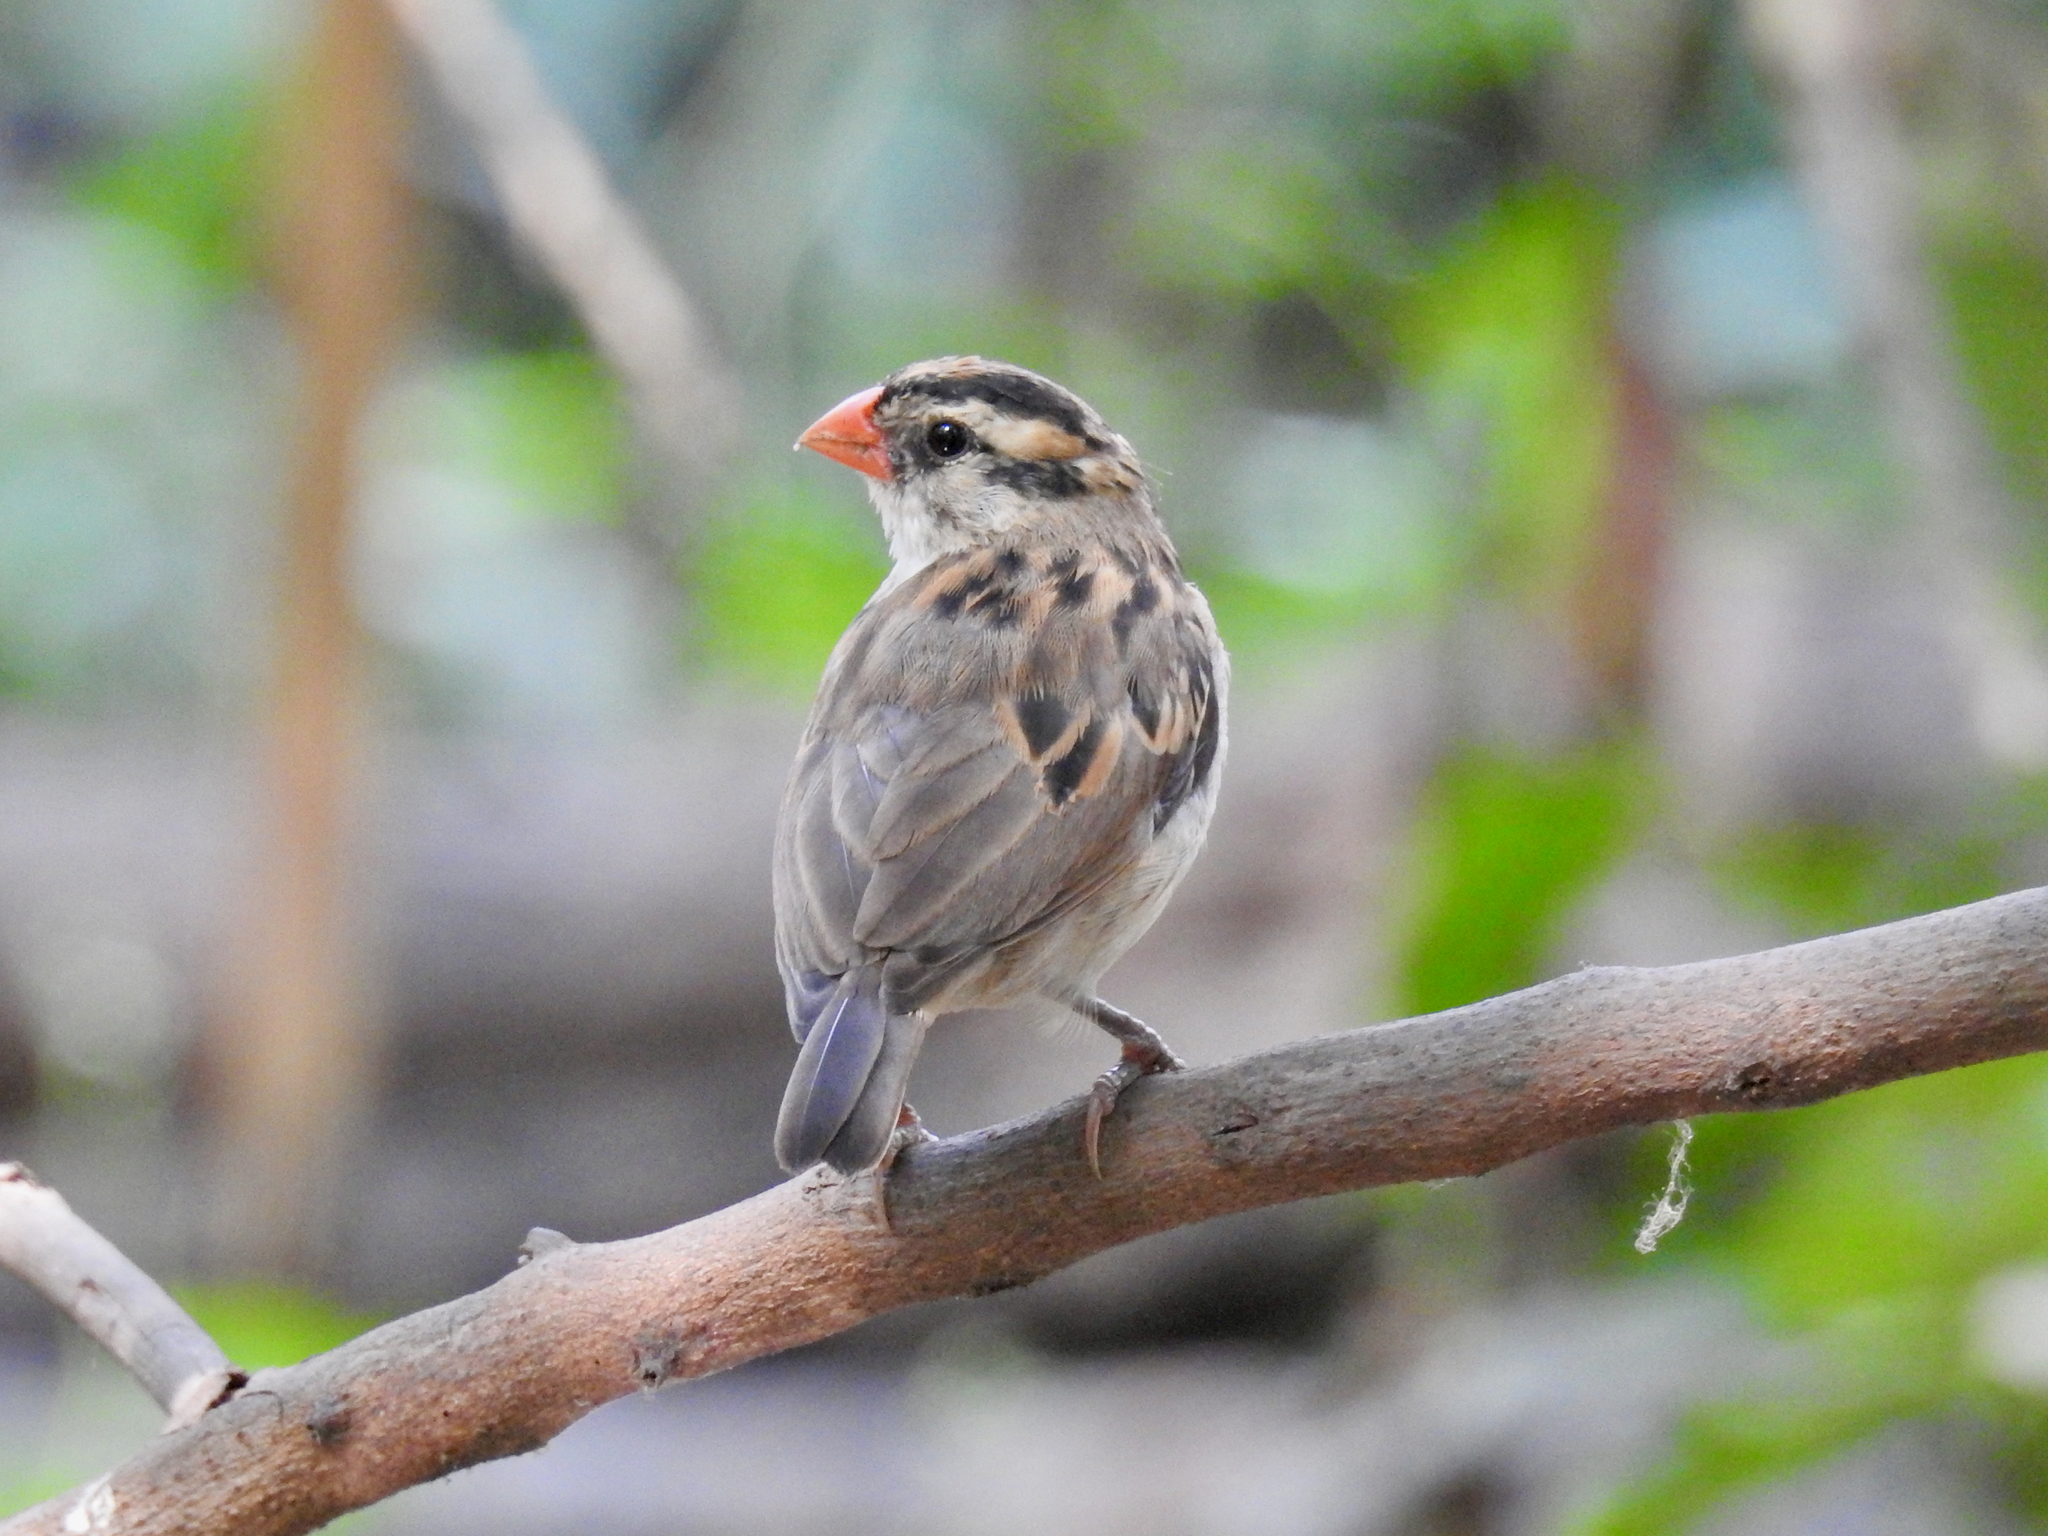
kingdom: Animalia
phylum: Chordata
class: Aves
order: Passeriformes
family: Viduidae
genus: Vidua
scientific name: Vidua macroura
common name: Pin-tailed whydah
